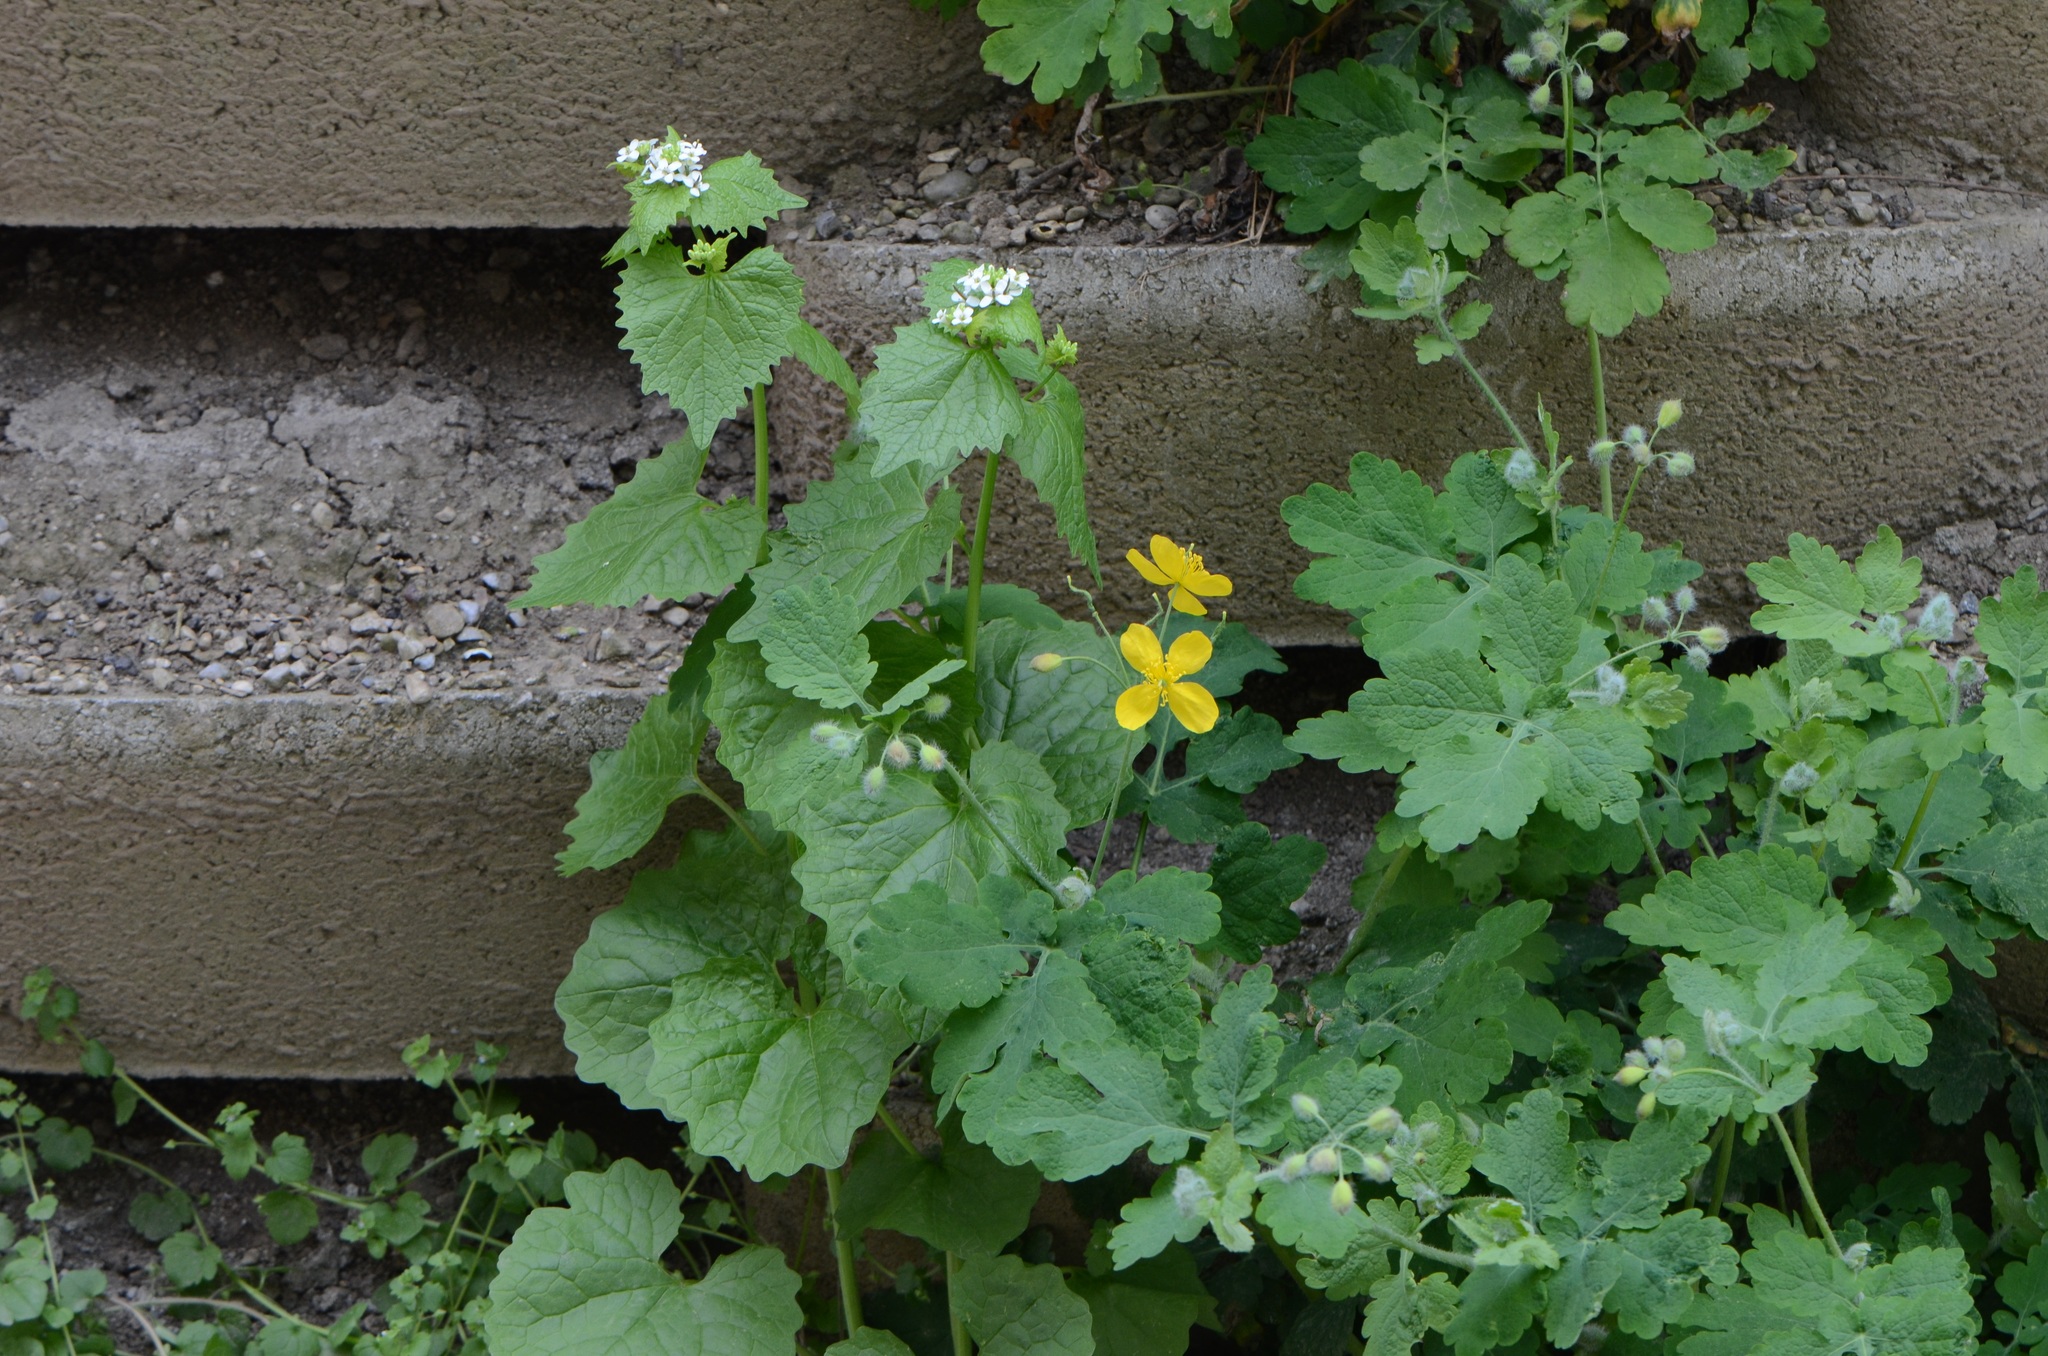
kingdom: Plantae
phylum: Tracheophyta
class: Magnoliopsida
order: Brassicales
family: Brassicaceae
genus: Alliaria
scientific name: Alliaria petiolata
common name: Garlic mustard
